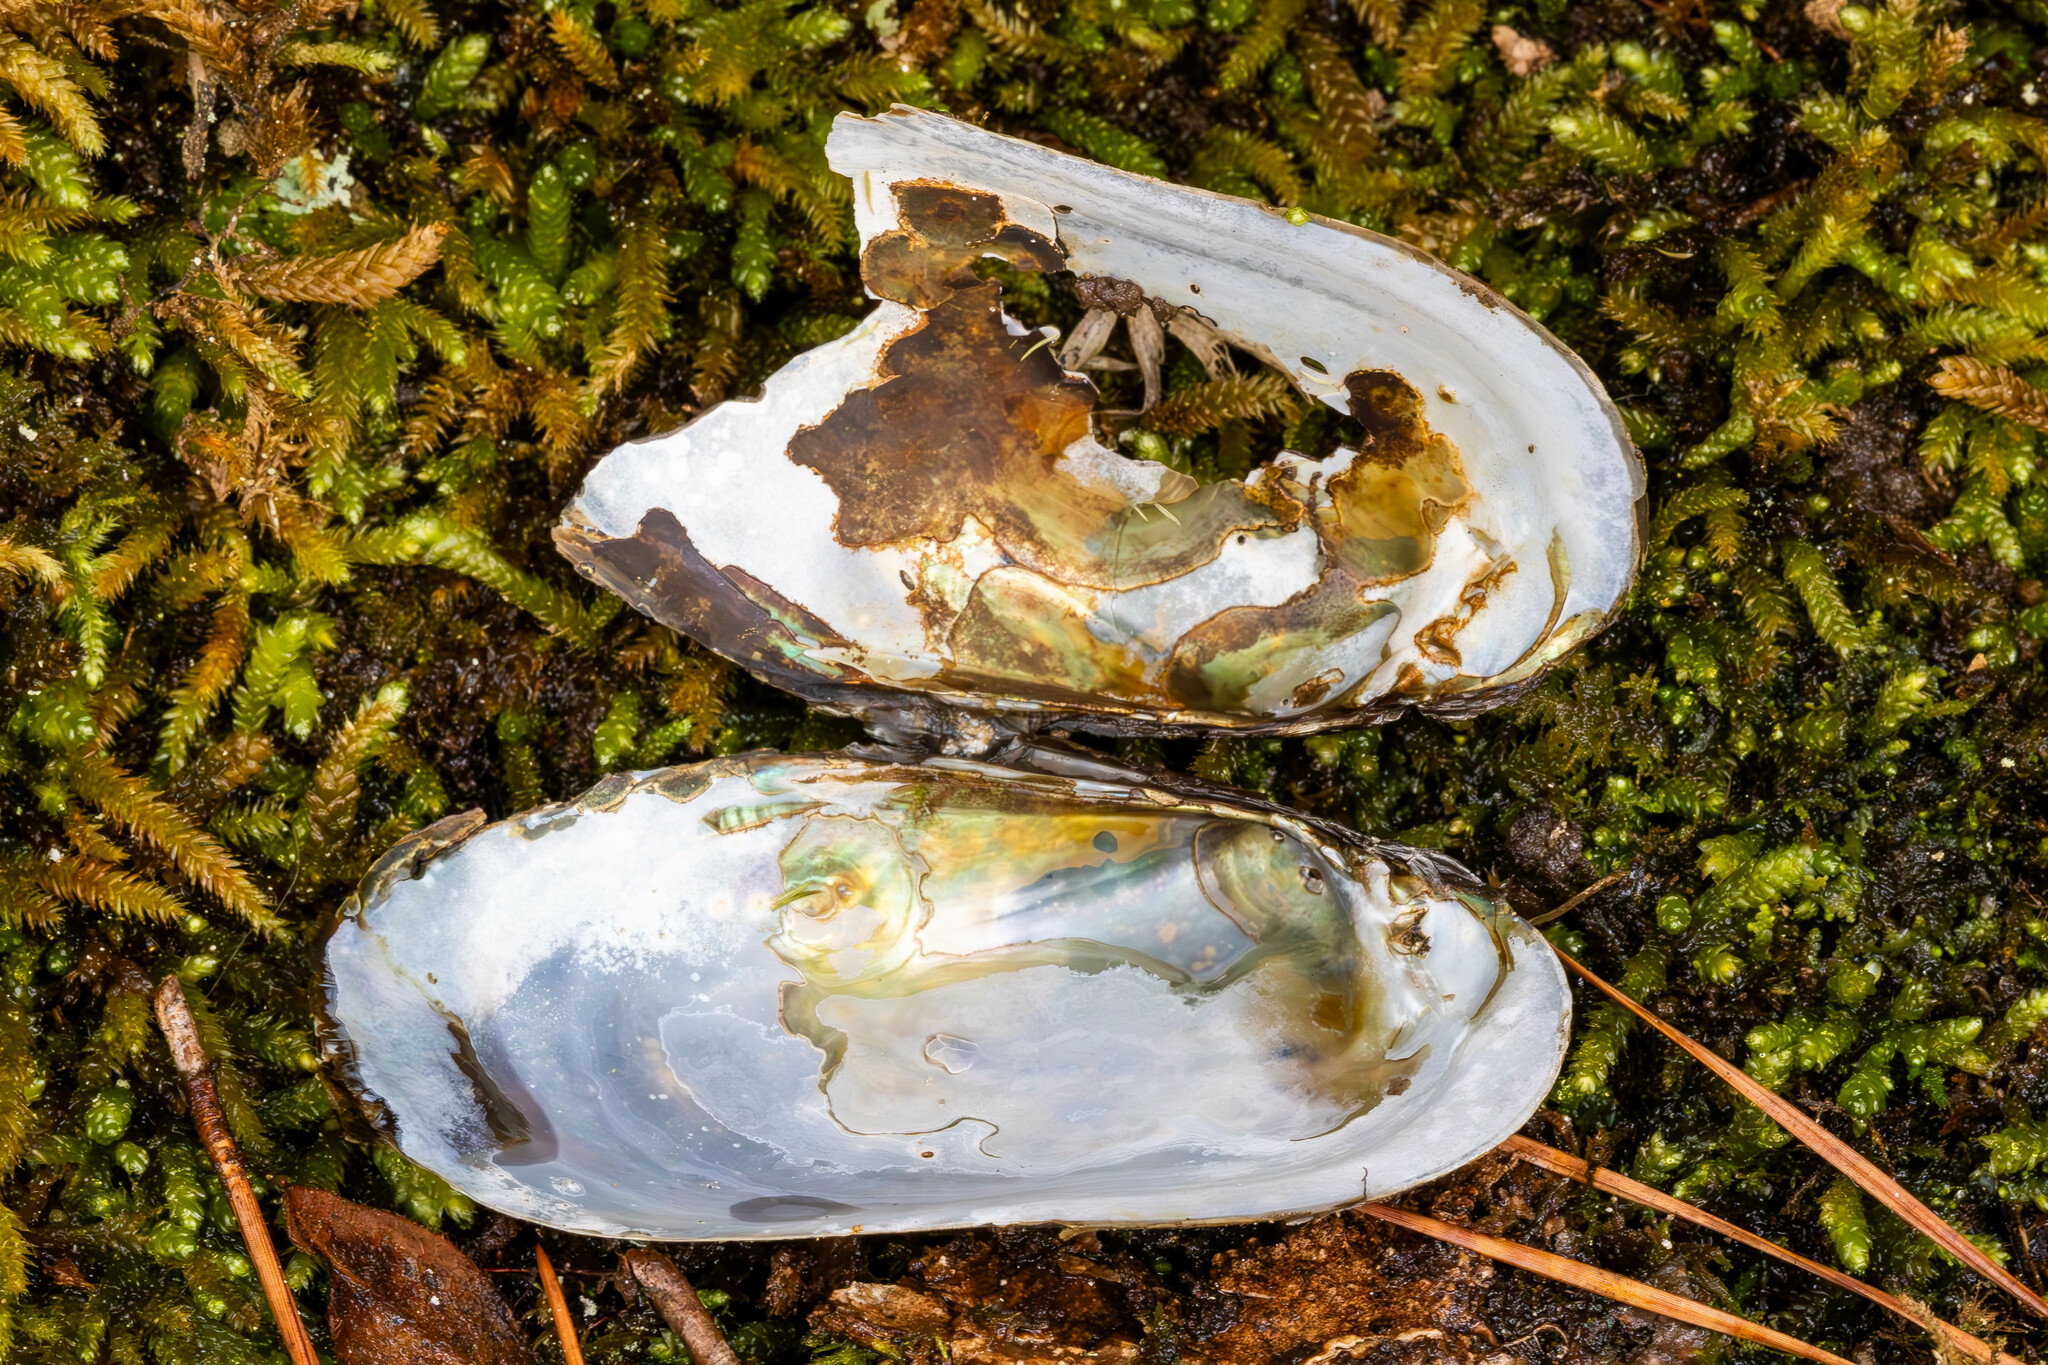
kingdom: Animalia
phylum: Mollusca
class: Bivalvia
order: Unionida
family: Unionidae
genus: Villosa
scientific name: Villosa vibex
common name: Southern rainbow
